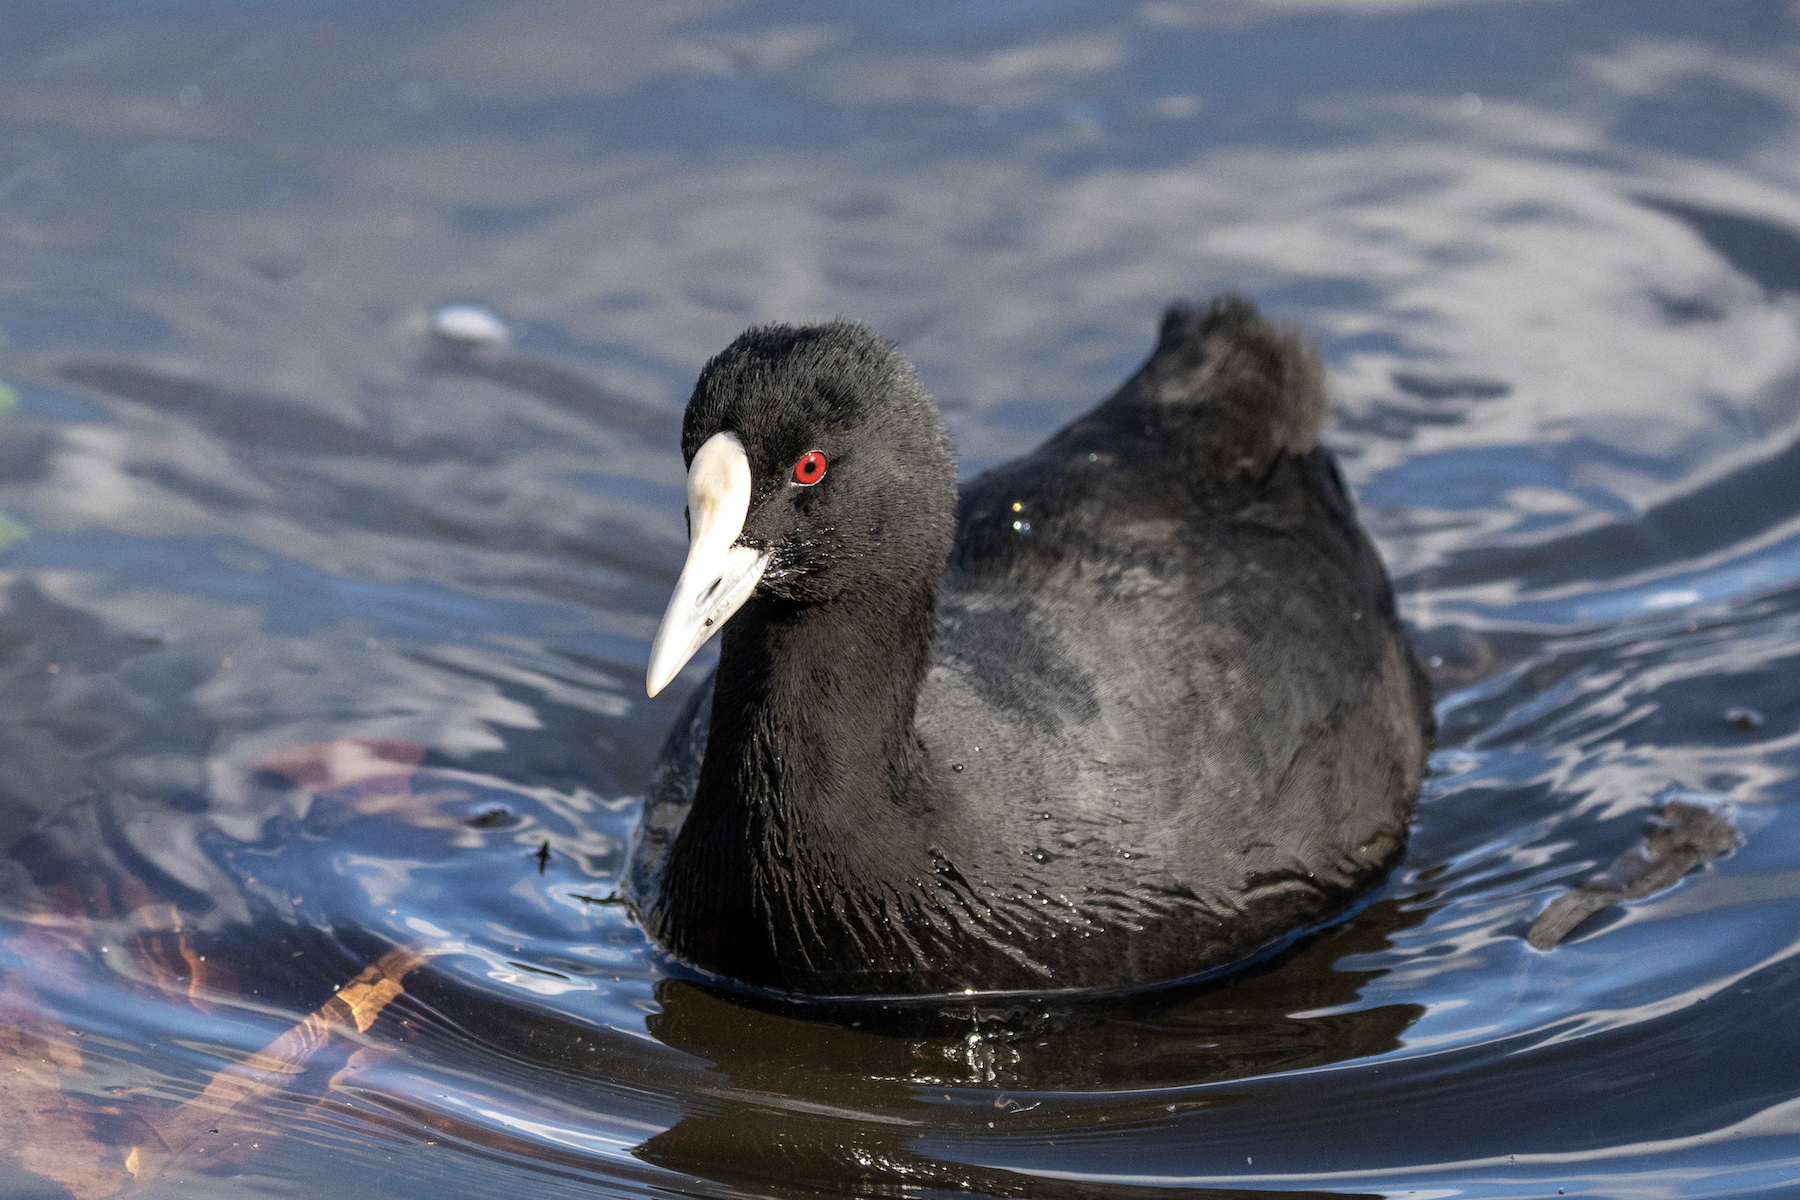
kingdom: Animalia
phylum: Chordata
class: Aves
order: Gruiformes
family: Rallidae
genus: Fulica
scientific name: Fulica atra
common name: Eurasian coot
